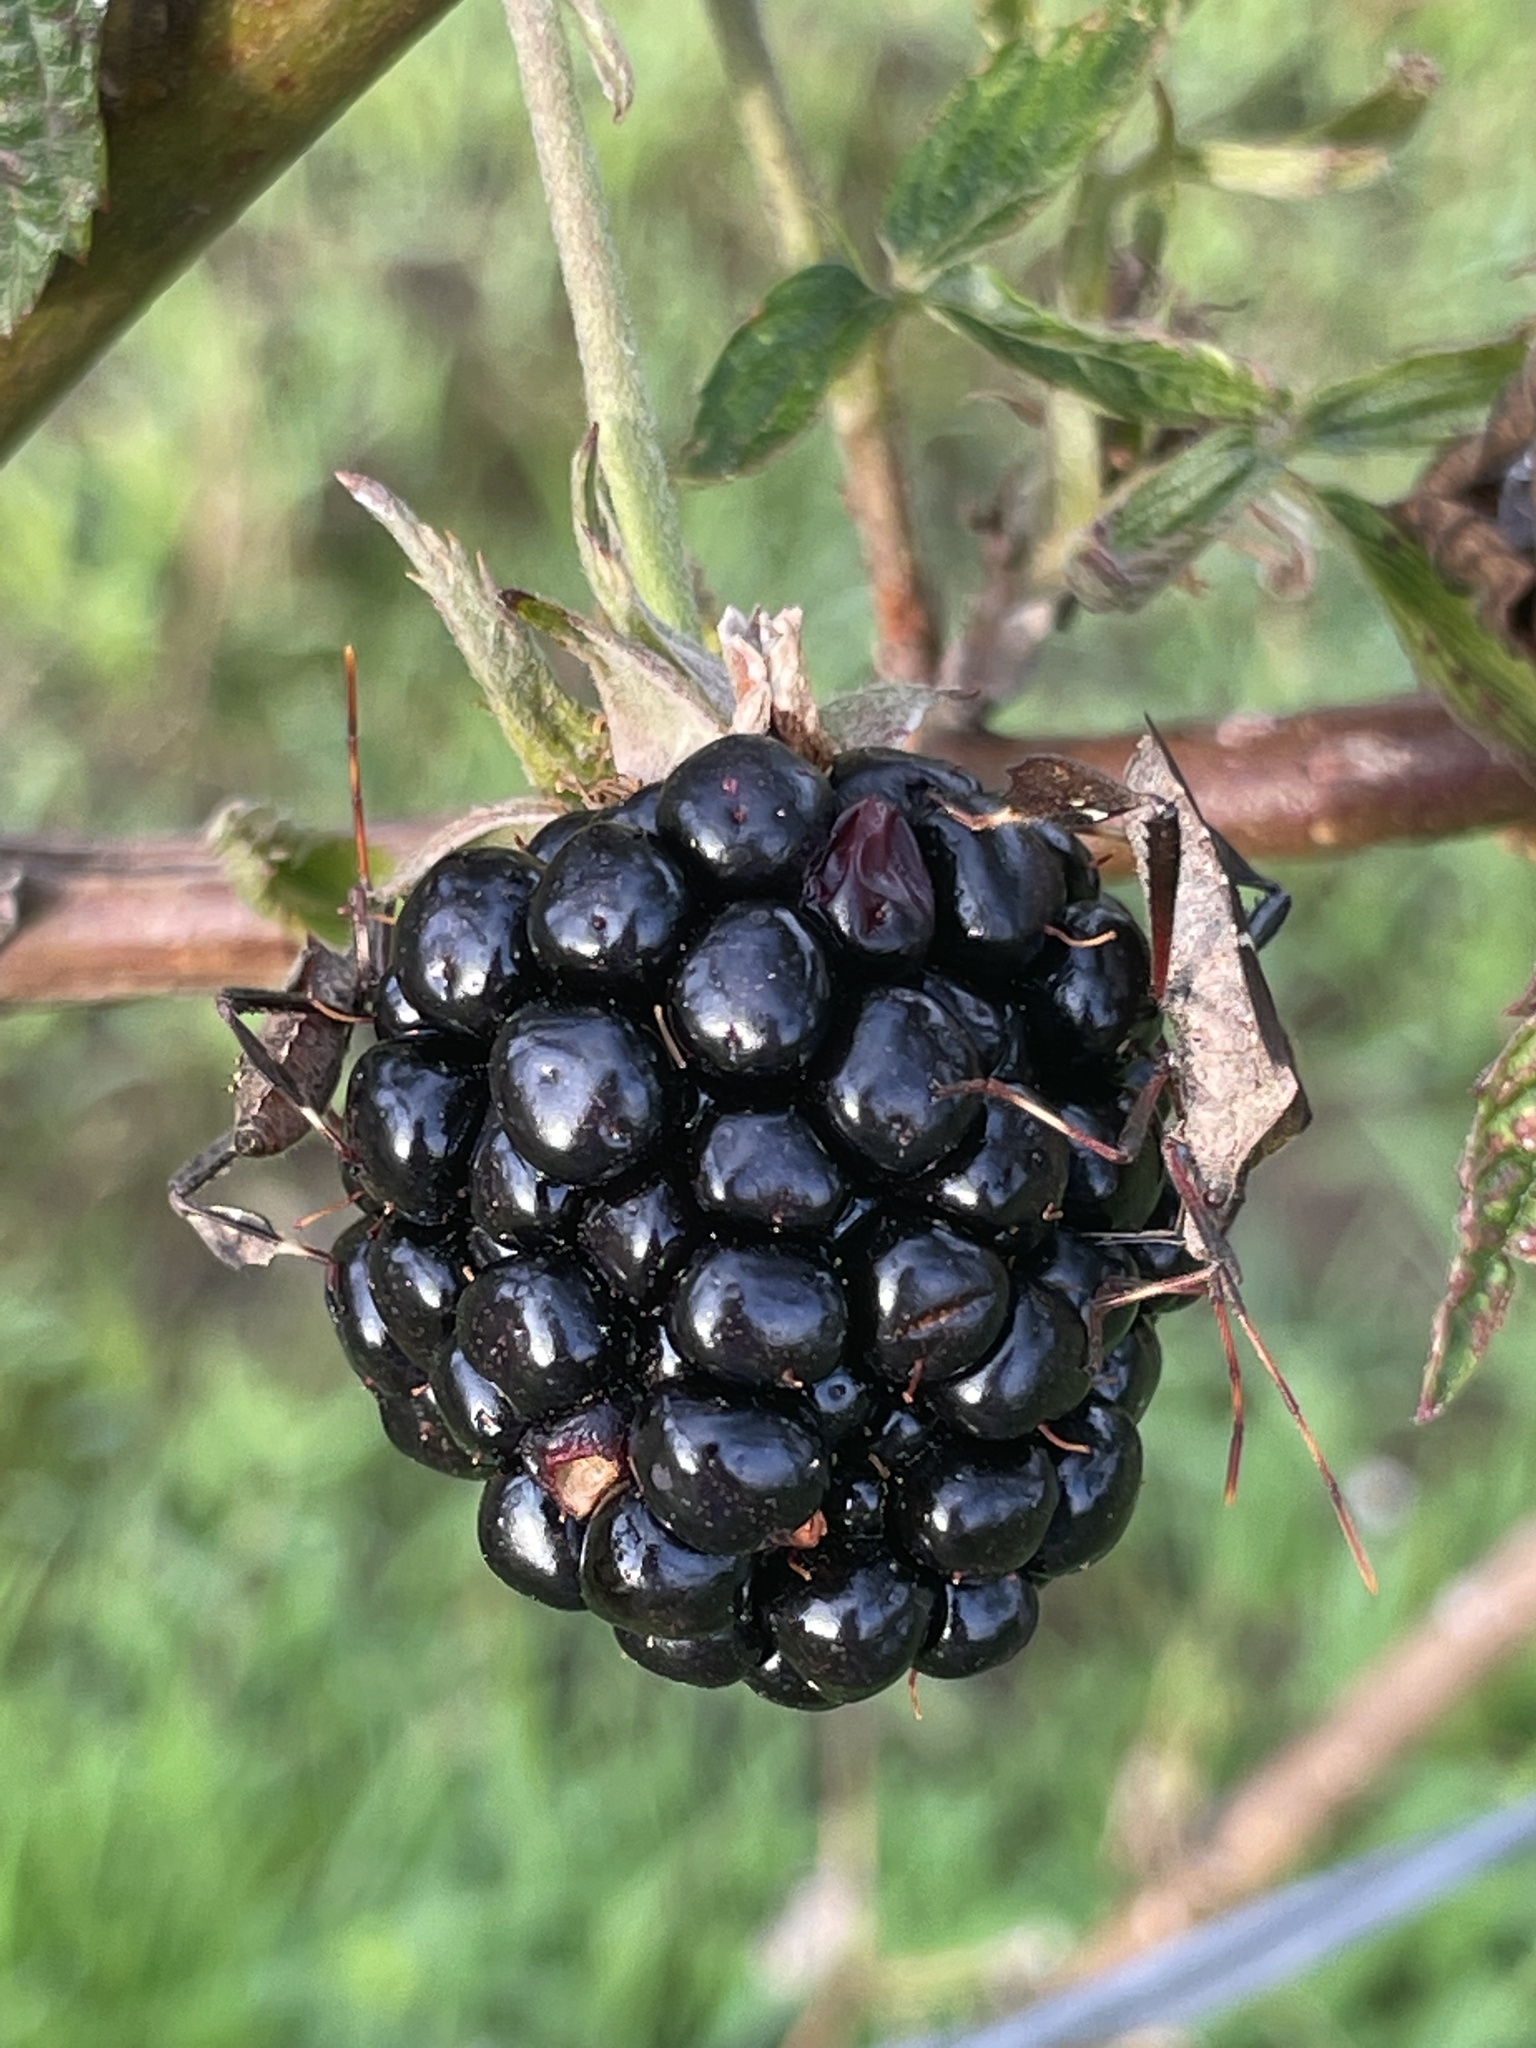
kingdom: Animalia
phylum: Arthropoda
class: Insecta
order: Hemiptera
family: Coreidae
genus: Leptoglossus
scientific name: Leptoglossus phyllopus
